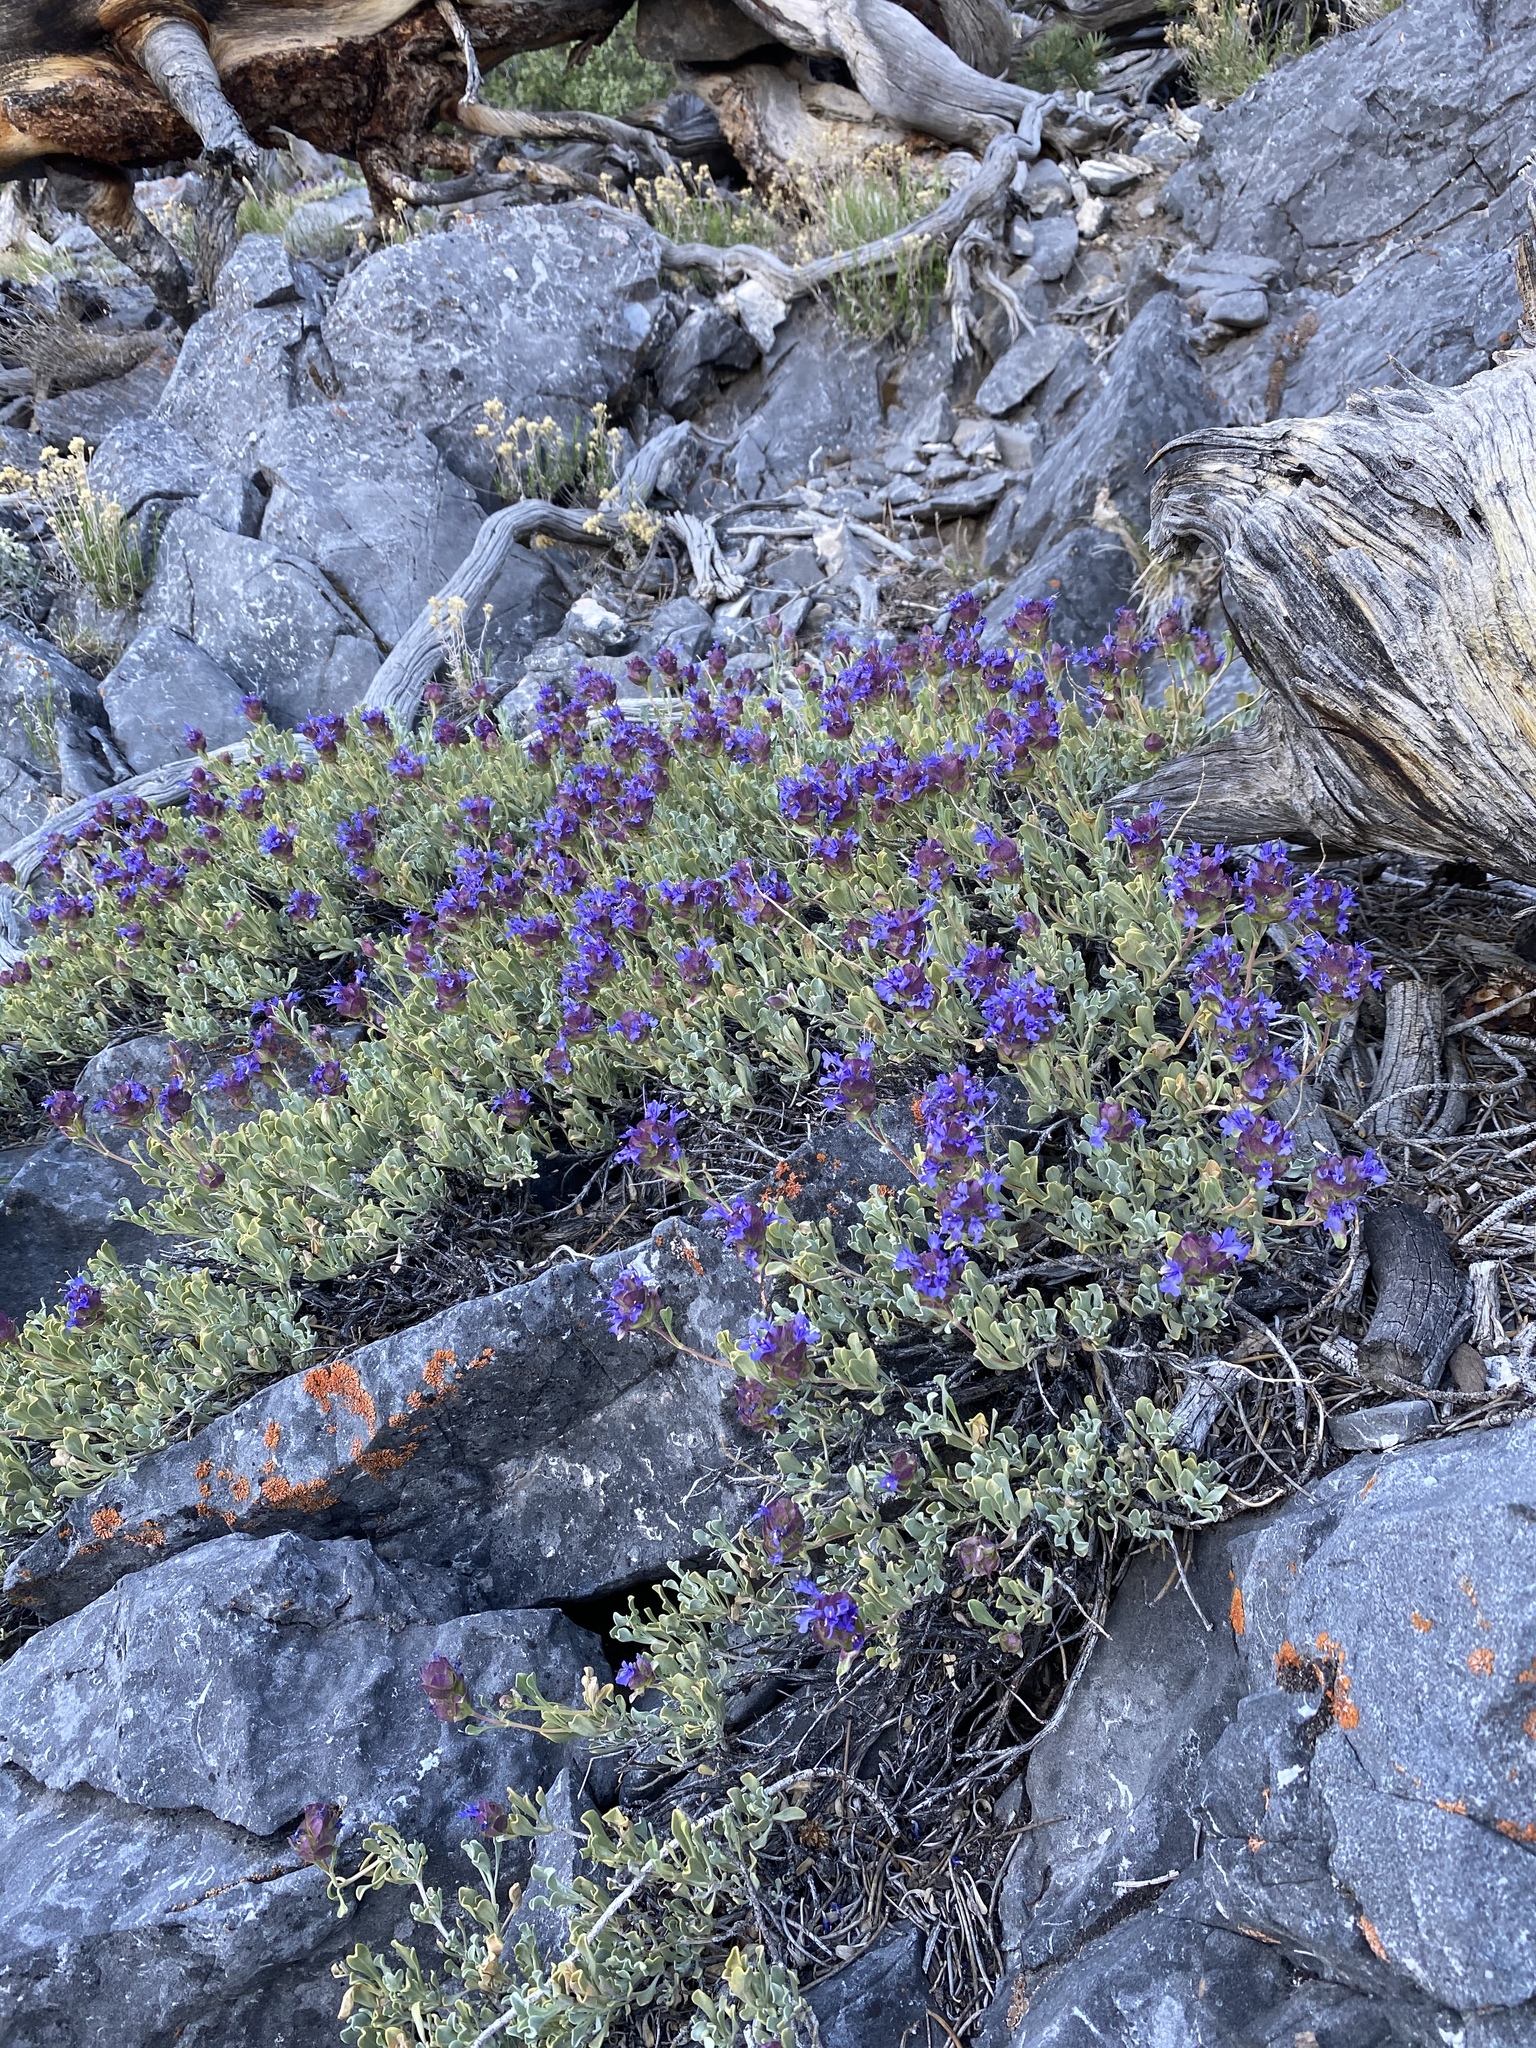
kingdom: Plantae
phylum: Tracheophyta
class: Magnoliopsida
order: Lamiales
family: Lamiaceae
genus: Salvia
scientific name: Salvia dorrii
